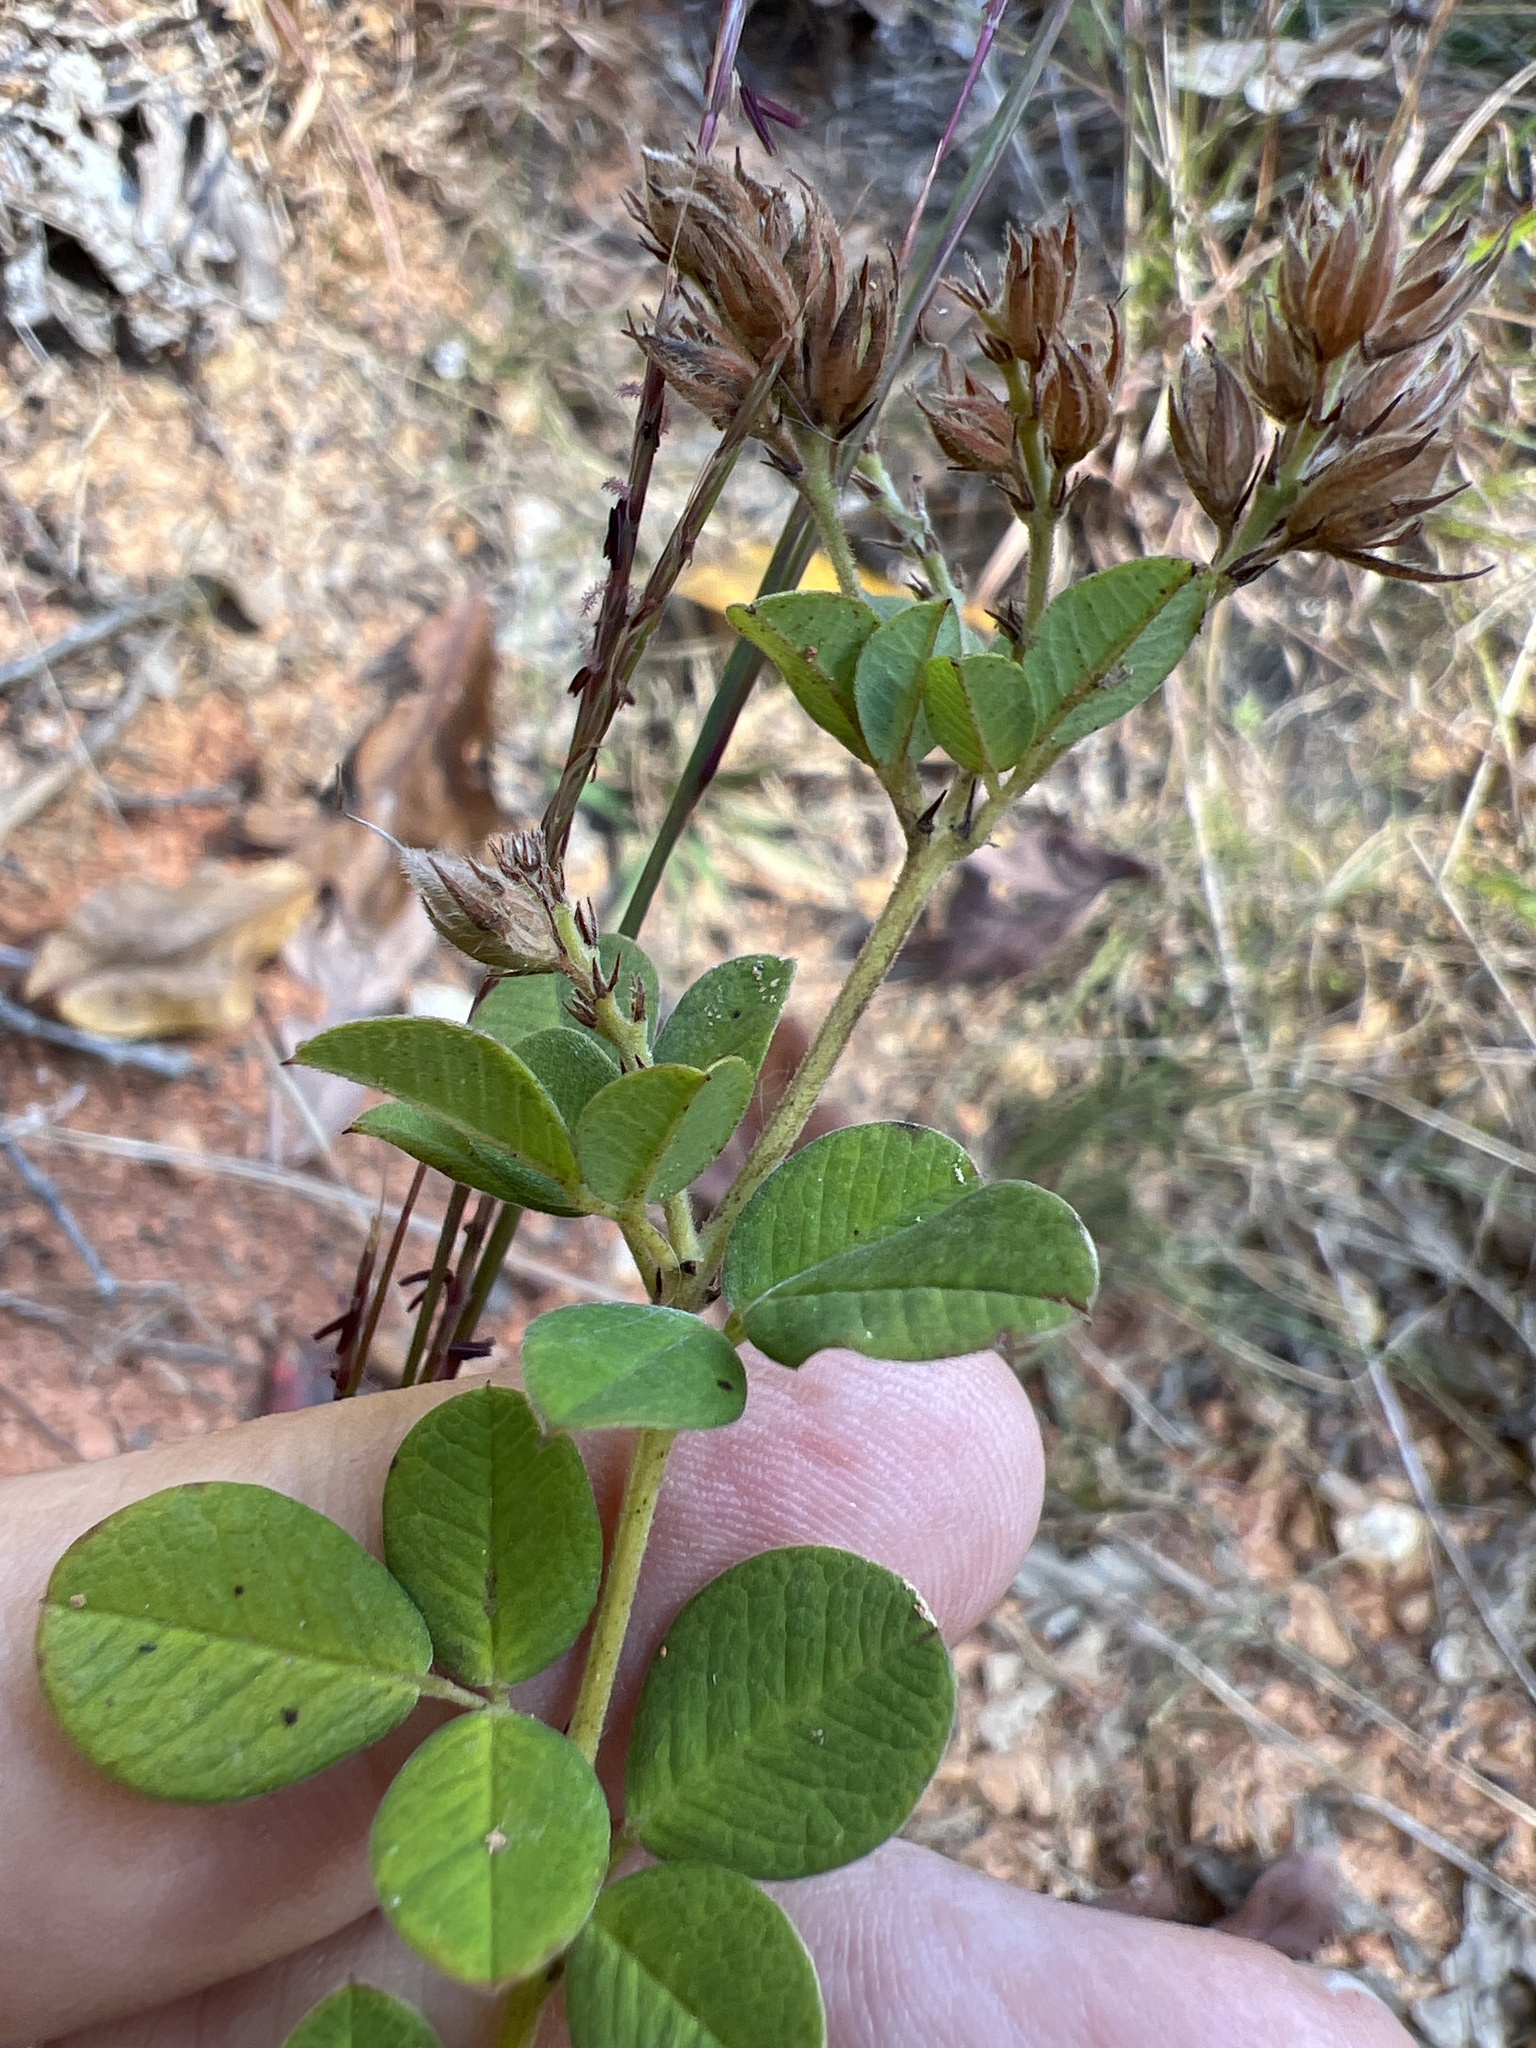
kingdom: Plantae
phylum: Tracheophyta
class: Magnoliopsida
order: Fabales
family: Fabaceae
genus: Lespedeza
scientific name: Lespedeza hirta
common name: Hairy lespedeza
